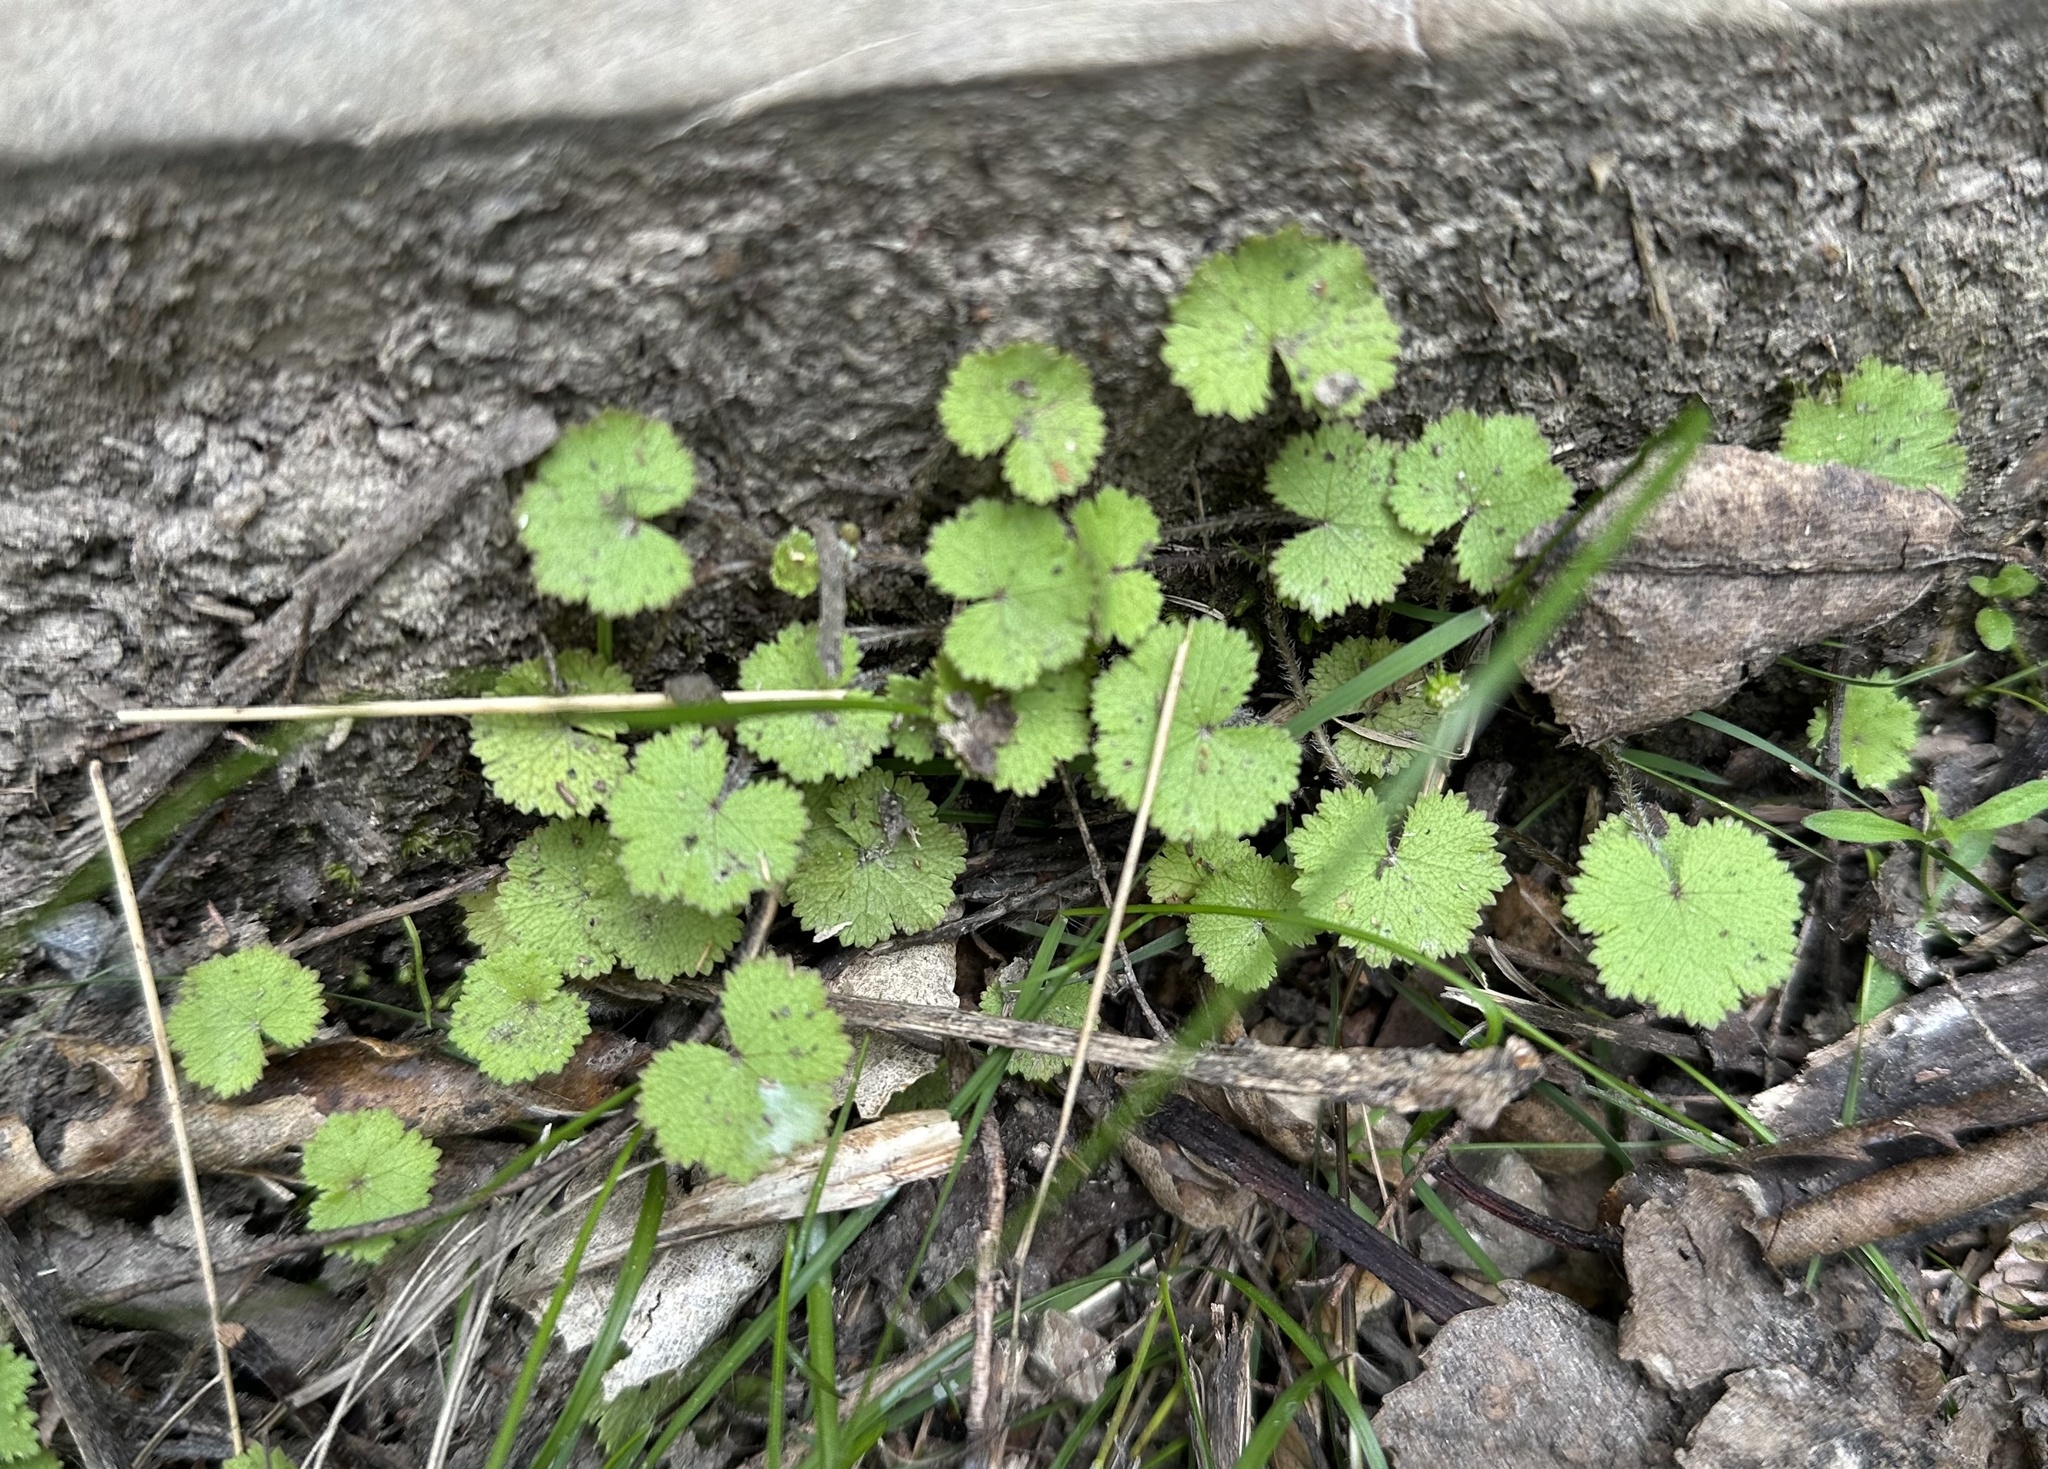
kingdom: Plantae
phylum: Tracheophyta
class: Magnoliopsida
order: Apiales
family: Araliaceae
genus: Hydrocotyle
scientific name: Hydrocotyle moschata
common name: Hairy pennywort
